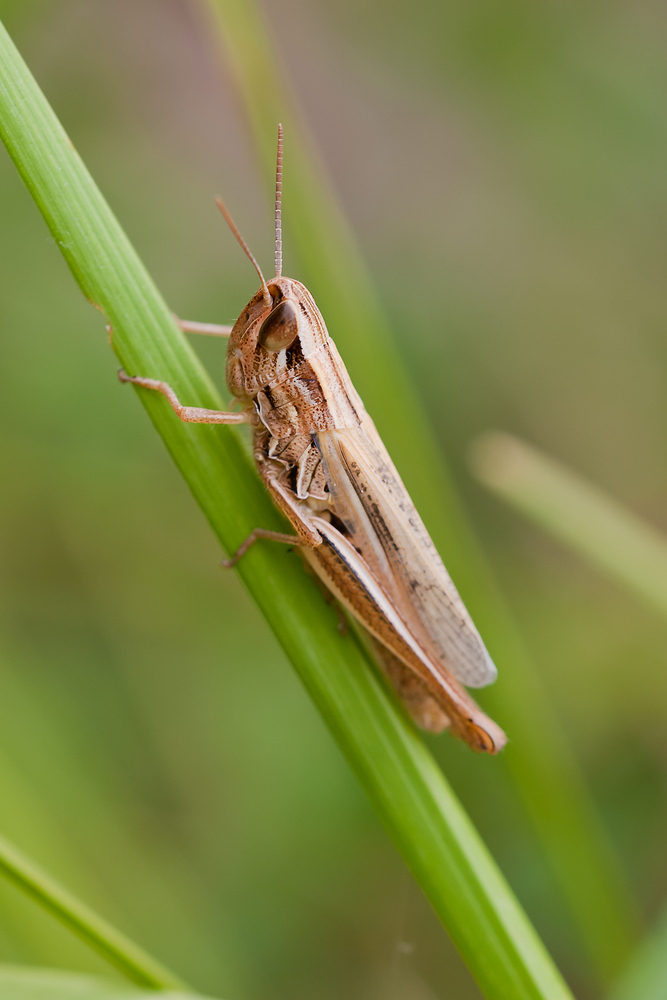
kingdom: Animalia
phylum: Arthropoda
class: Insecta
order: Orthoptera
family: Acrididae
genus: Euchorthippus
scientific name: Euchorthippus declivus
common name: Common straw grasshopper
